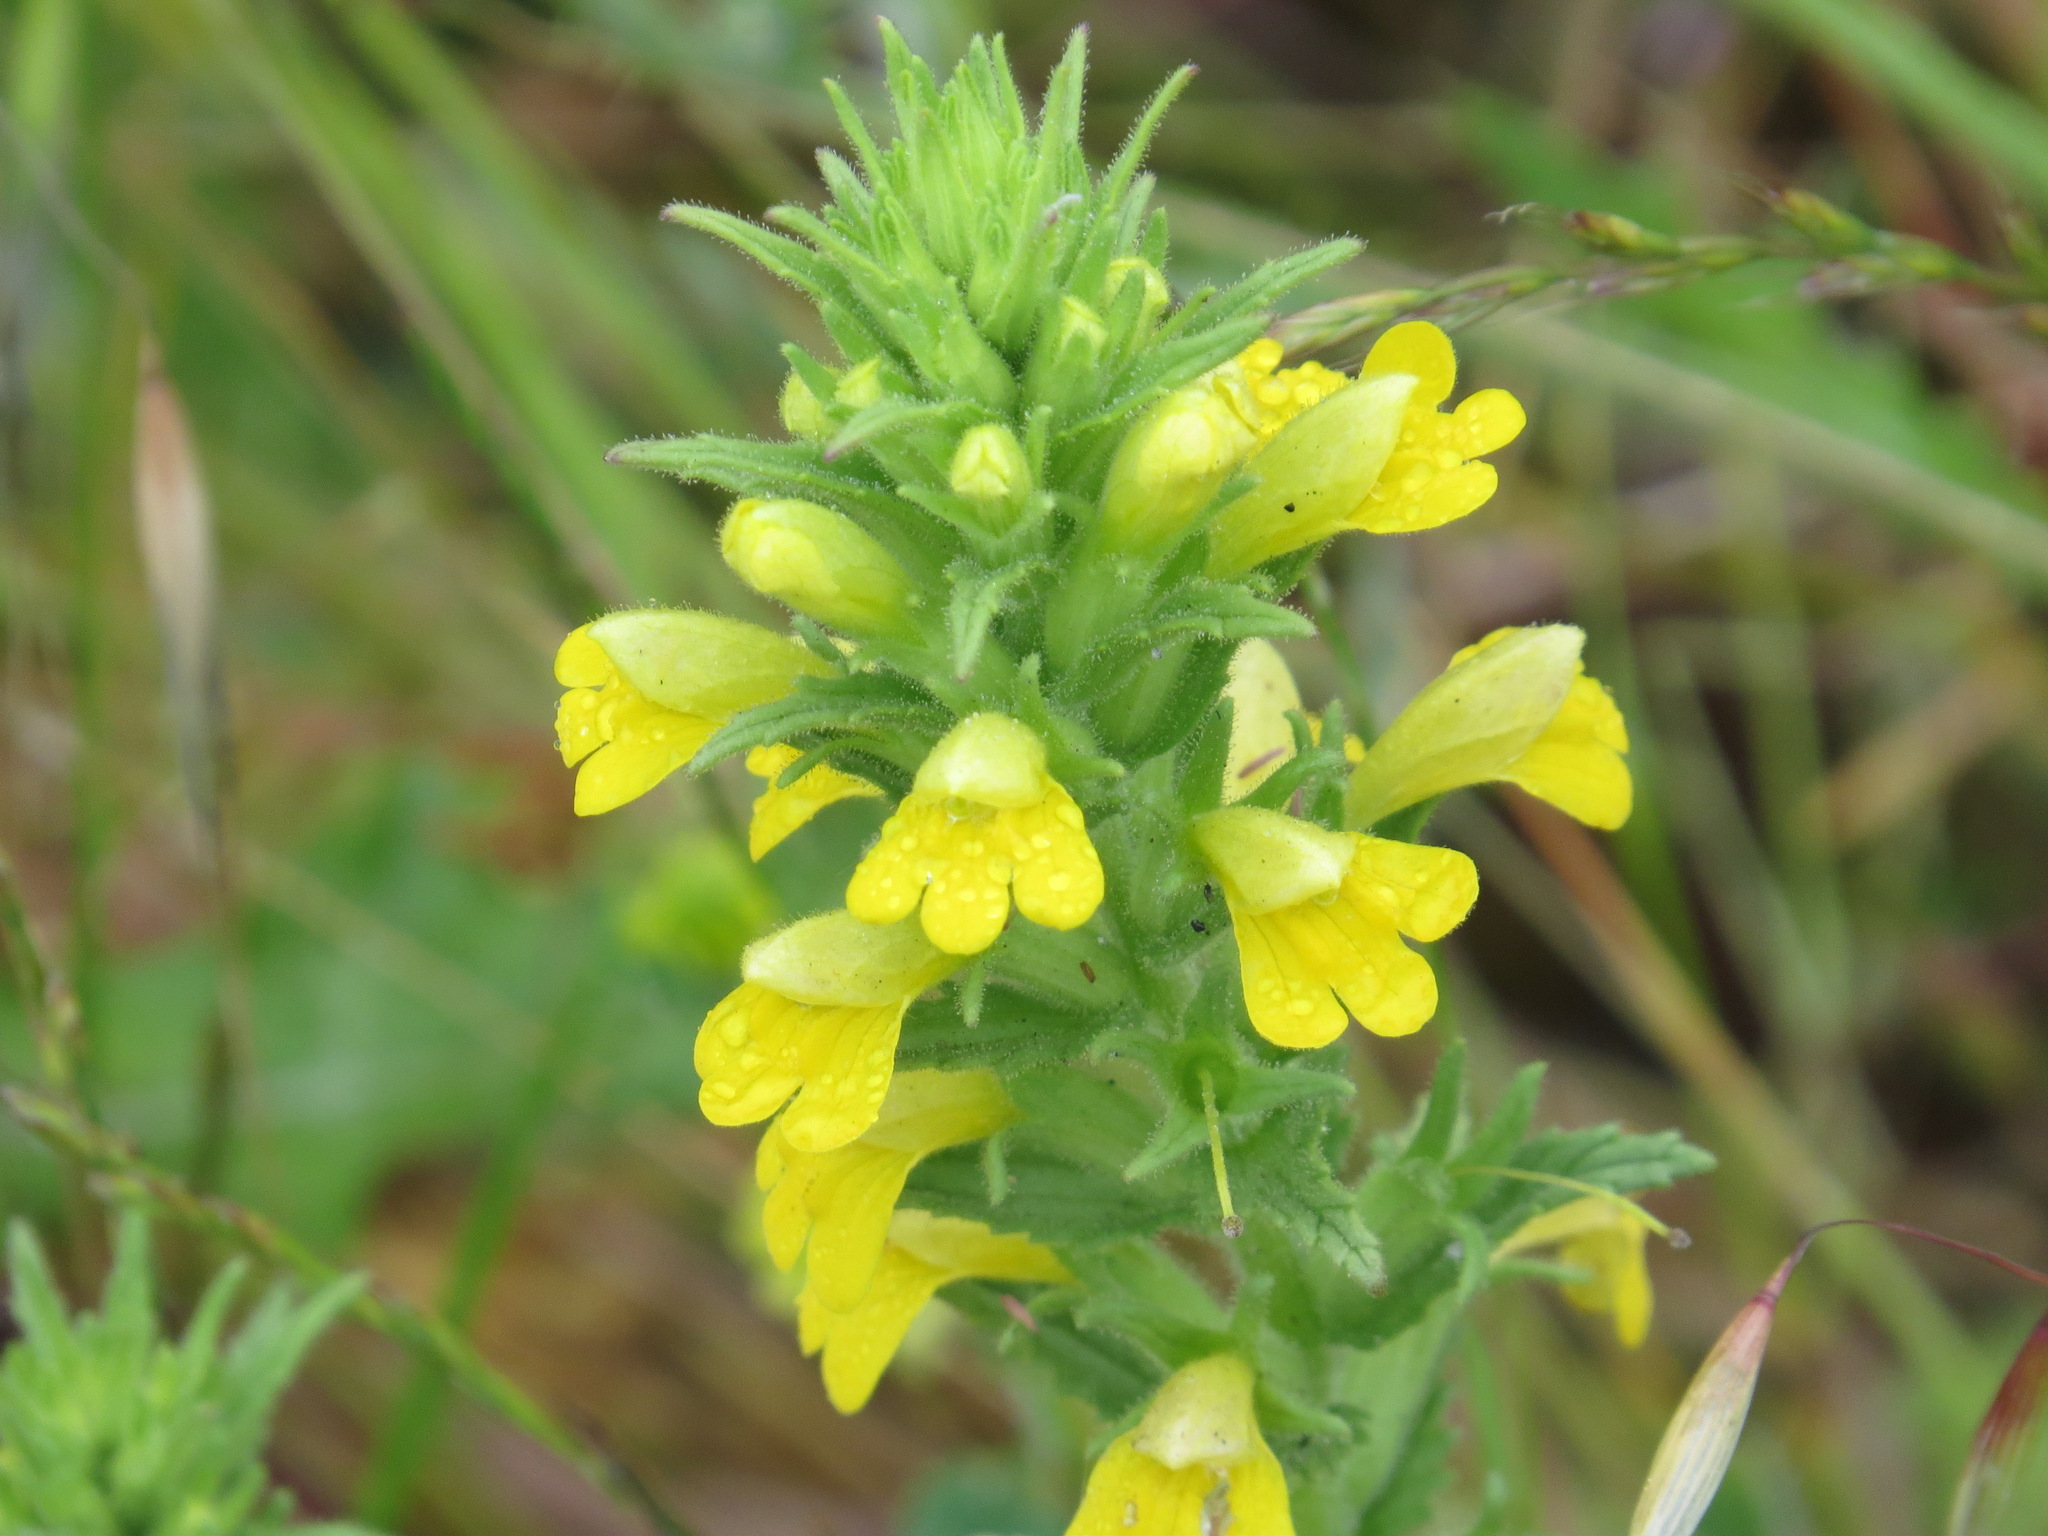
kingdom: Plantae
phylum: Tracheophyta
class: Magnoliopsida
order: Lamiales
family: Orobanchaceae
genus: Bellardia
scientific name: Bellardia viscosa
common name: Sticky parentucellia
